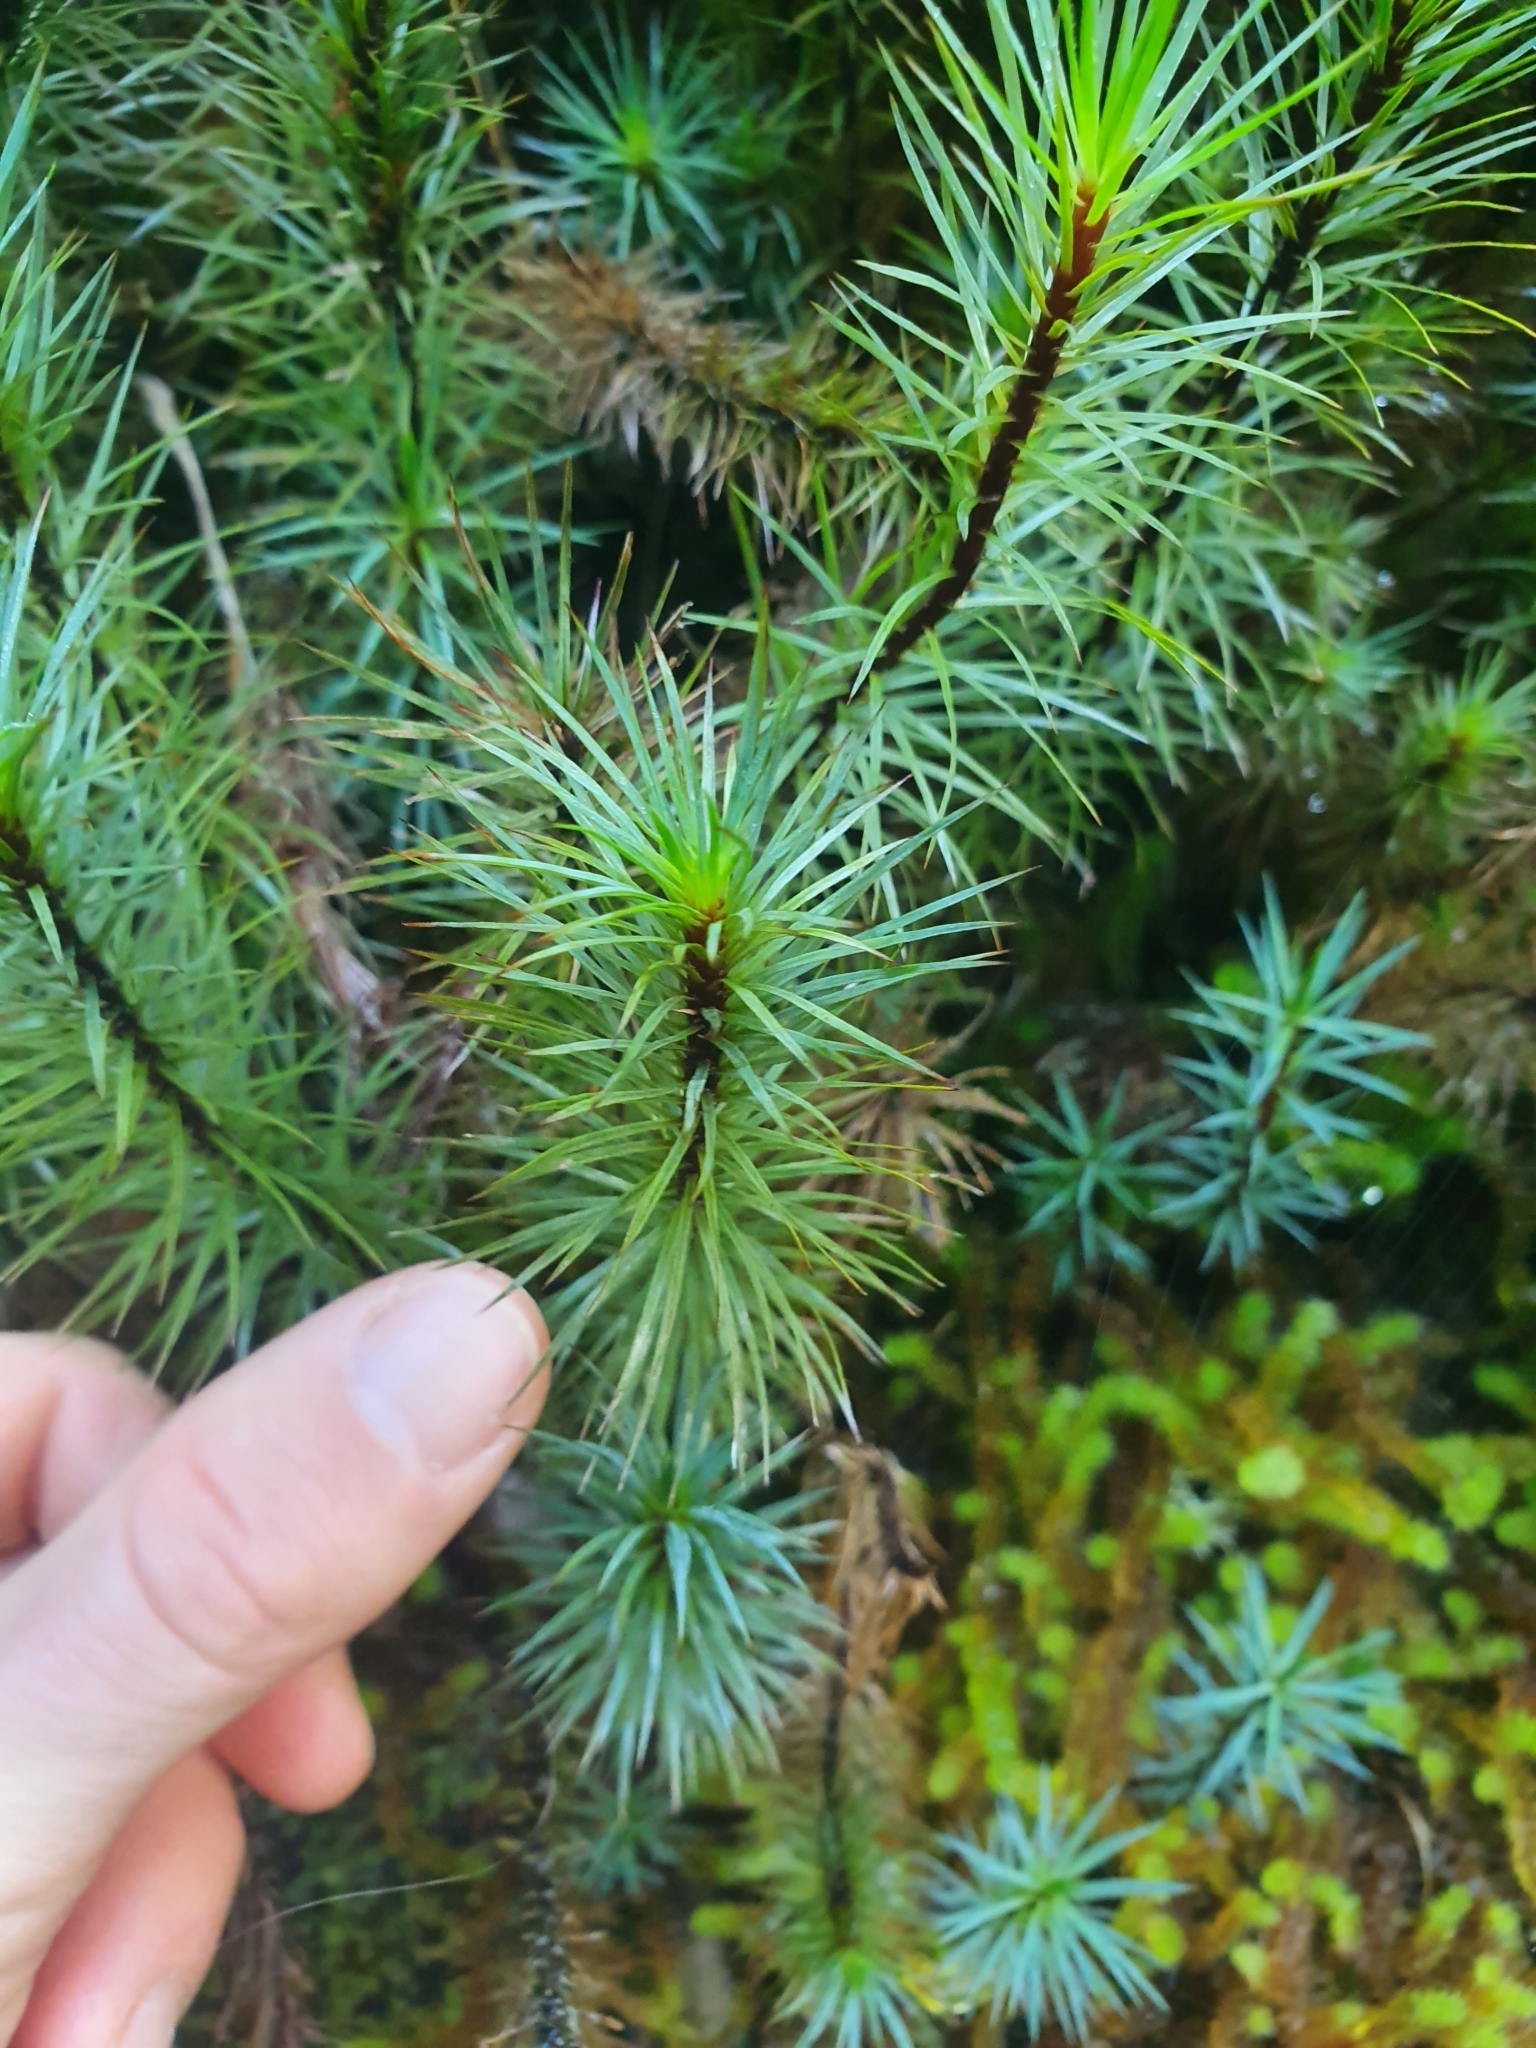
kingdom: Plantae
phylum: Bryophyta
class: Polytrichopsida
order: Polytrichales
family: Polytrichaceae
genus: Dawsonia
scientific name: Dawsonia superba
